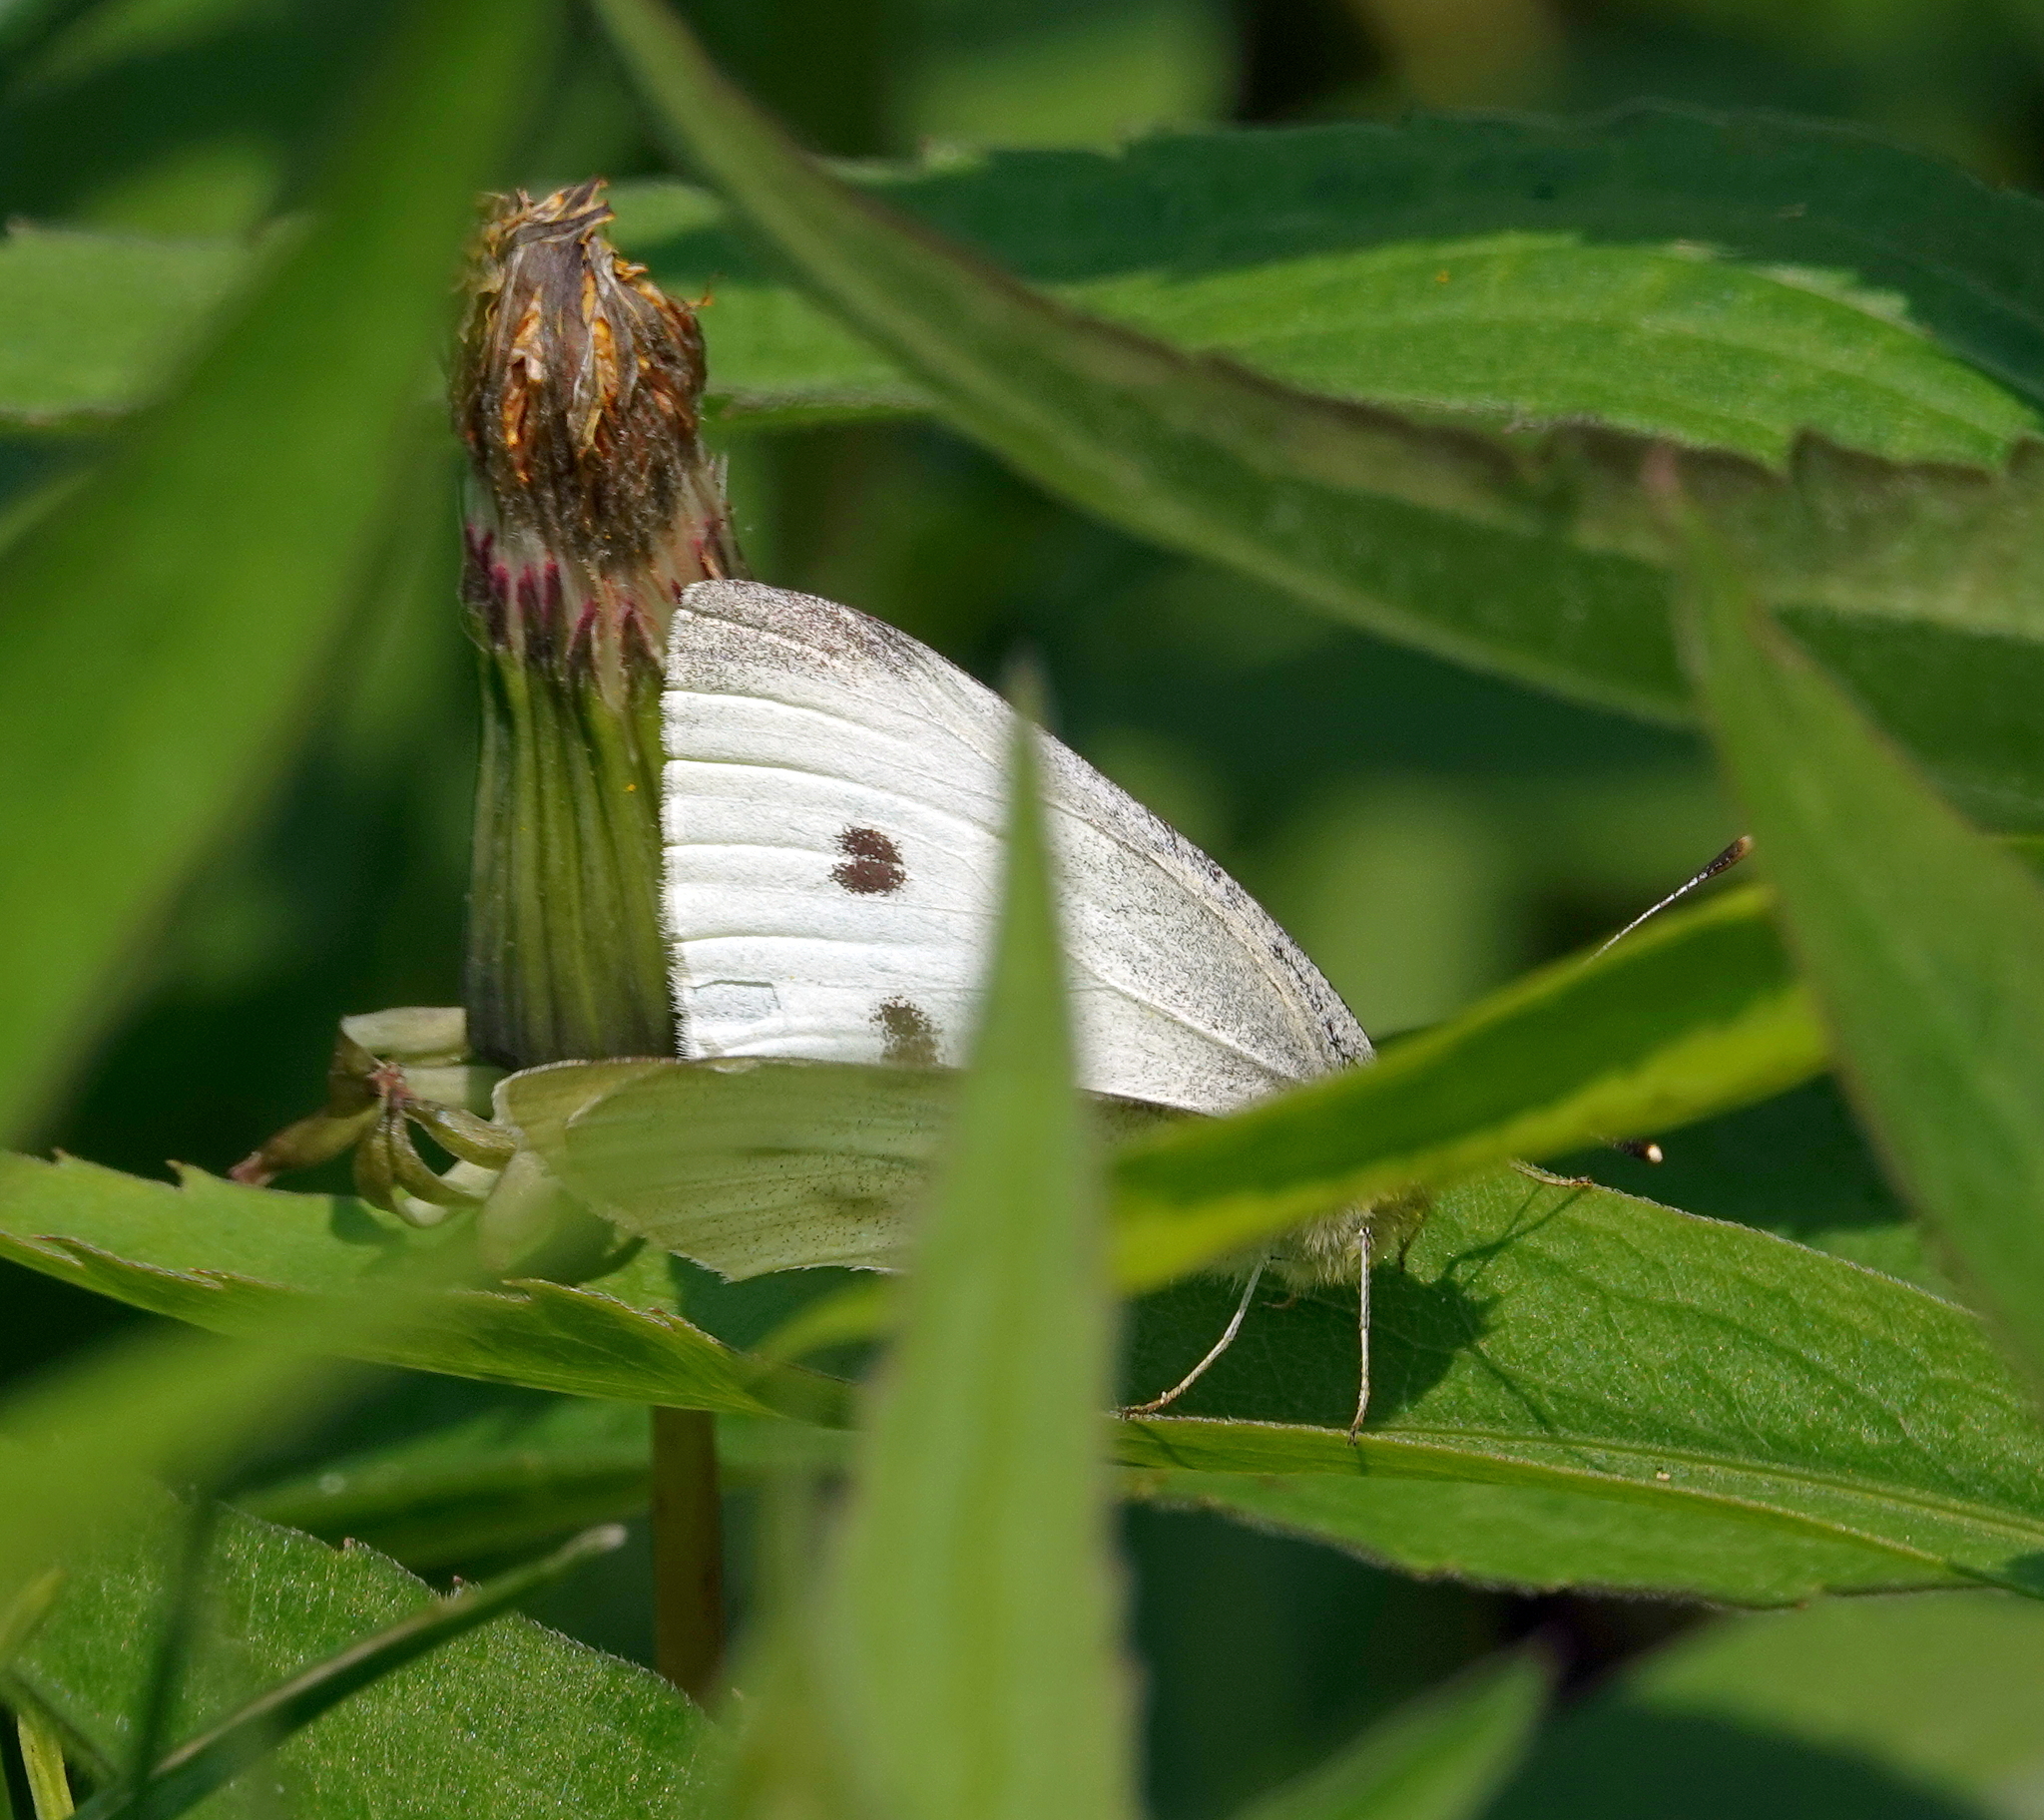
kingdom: Animalia
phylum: Arthropoda
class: Insecta
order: Lepidoptera
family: Pieridae
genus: Pieris
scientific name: Pieris rapae
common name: Small white
